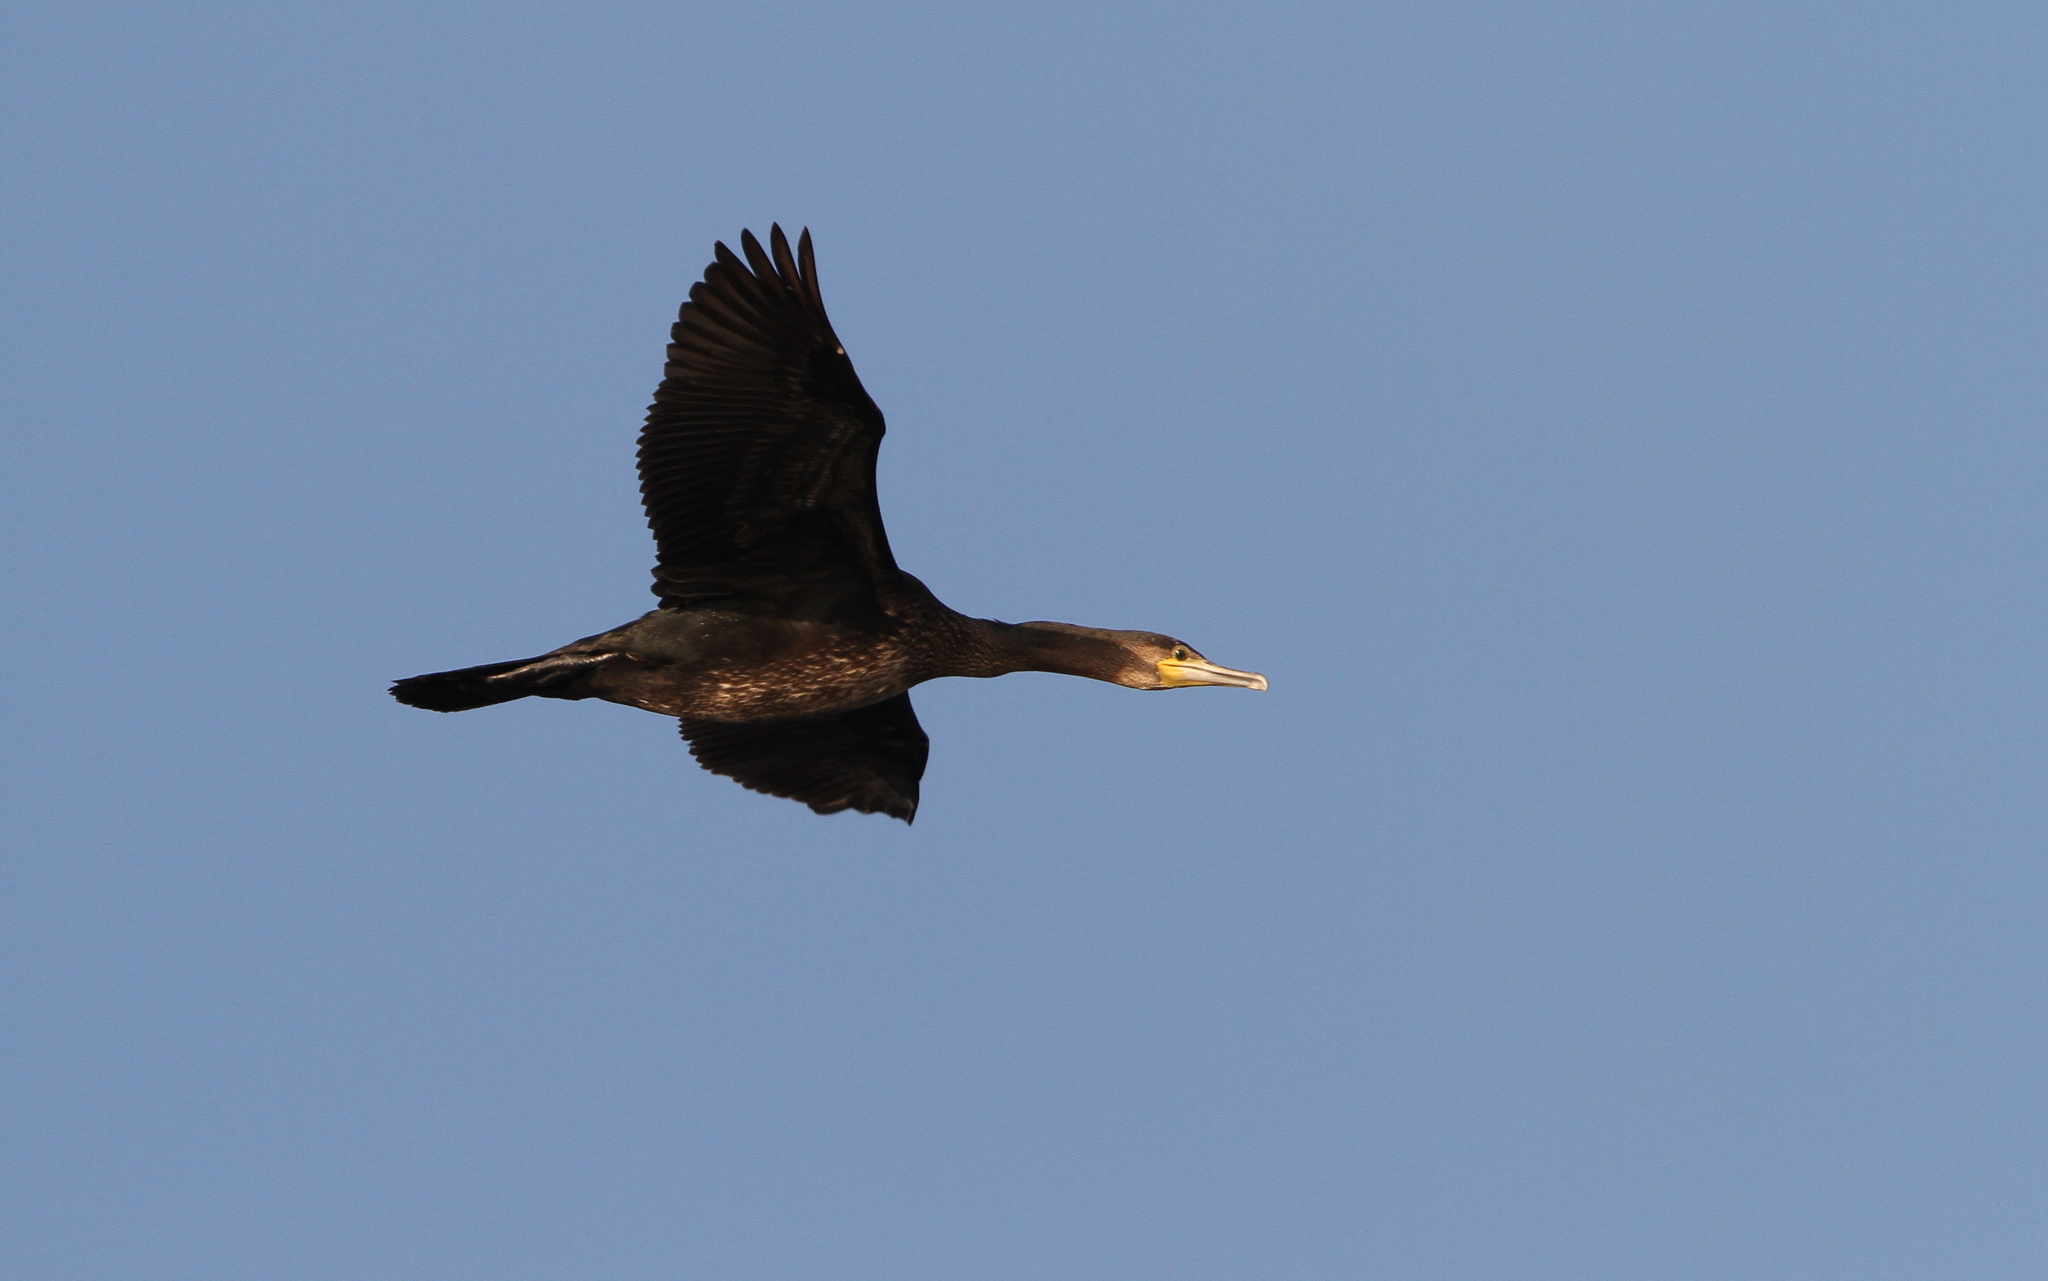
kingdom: Animalia
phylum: Chordata
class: Aves
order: Suliformes
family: Phalacrocoracidae
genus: Phalacrocorax
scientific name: Phalacrocorax carbo
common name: Great cormorant
